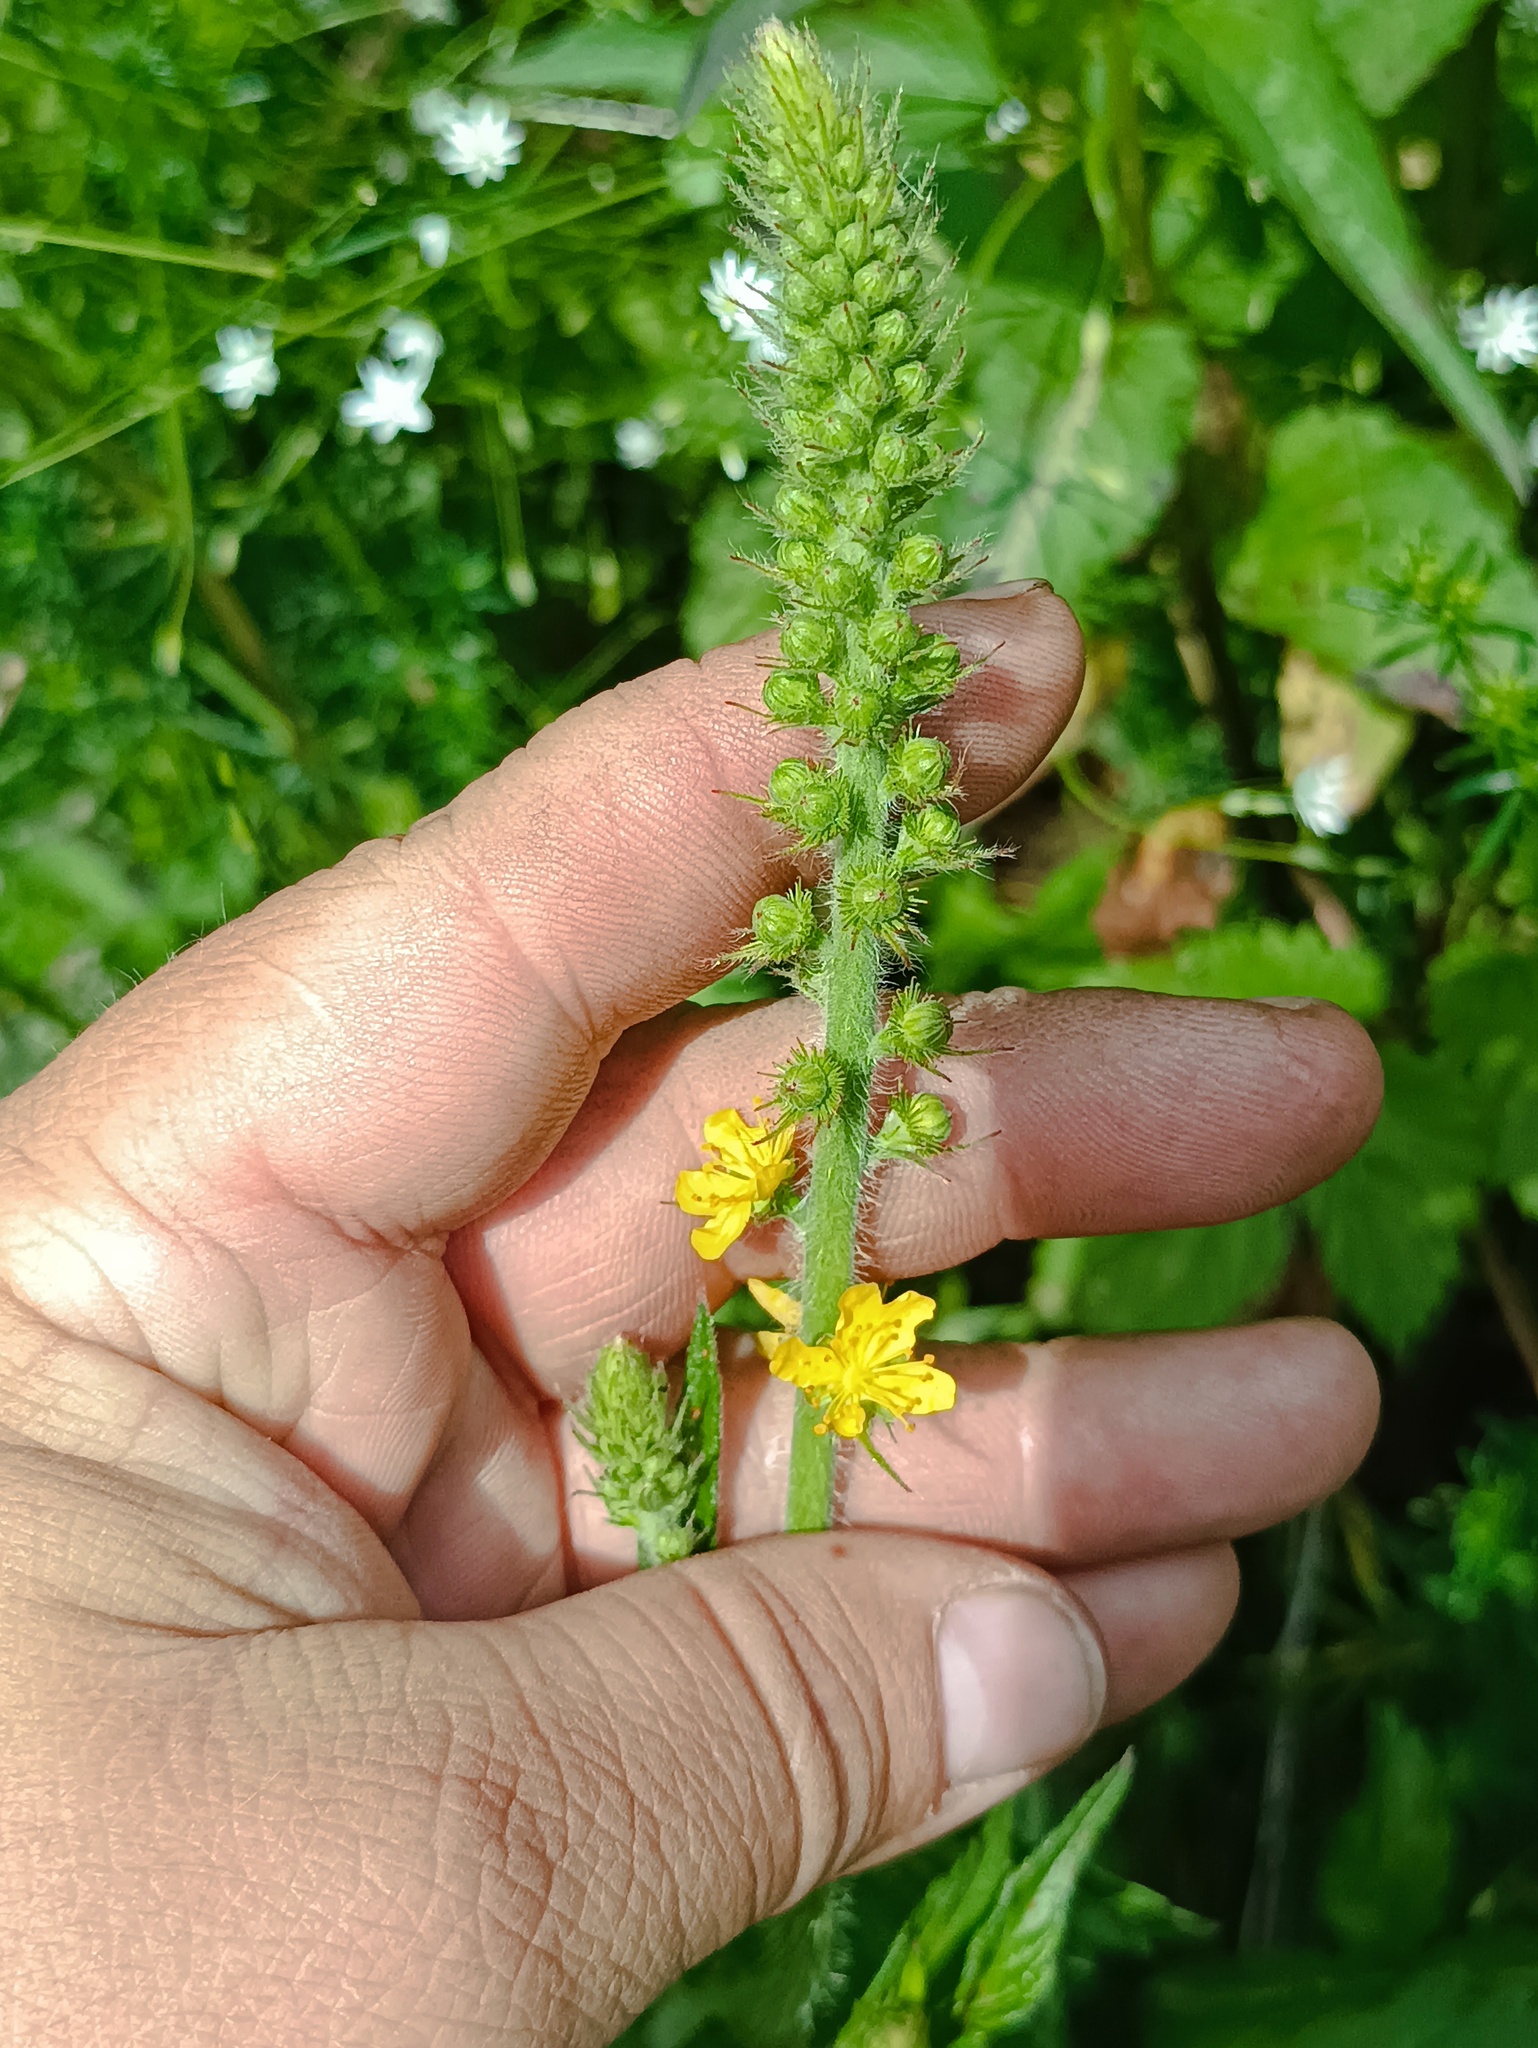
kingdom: Plantae
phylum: Tracheophyta
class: Magnoliopsida
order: Rosales
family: Rosaceae
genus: Agrimonia
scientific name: Agrimonia eupatoria
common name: Agrimony
